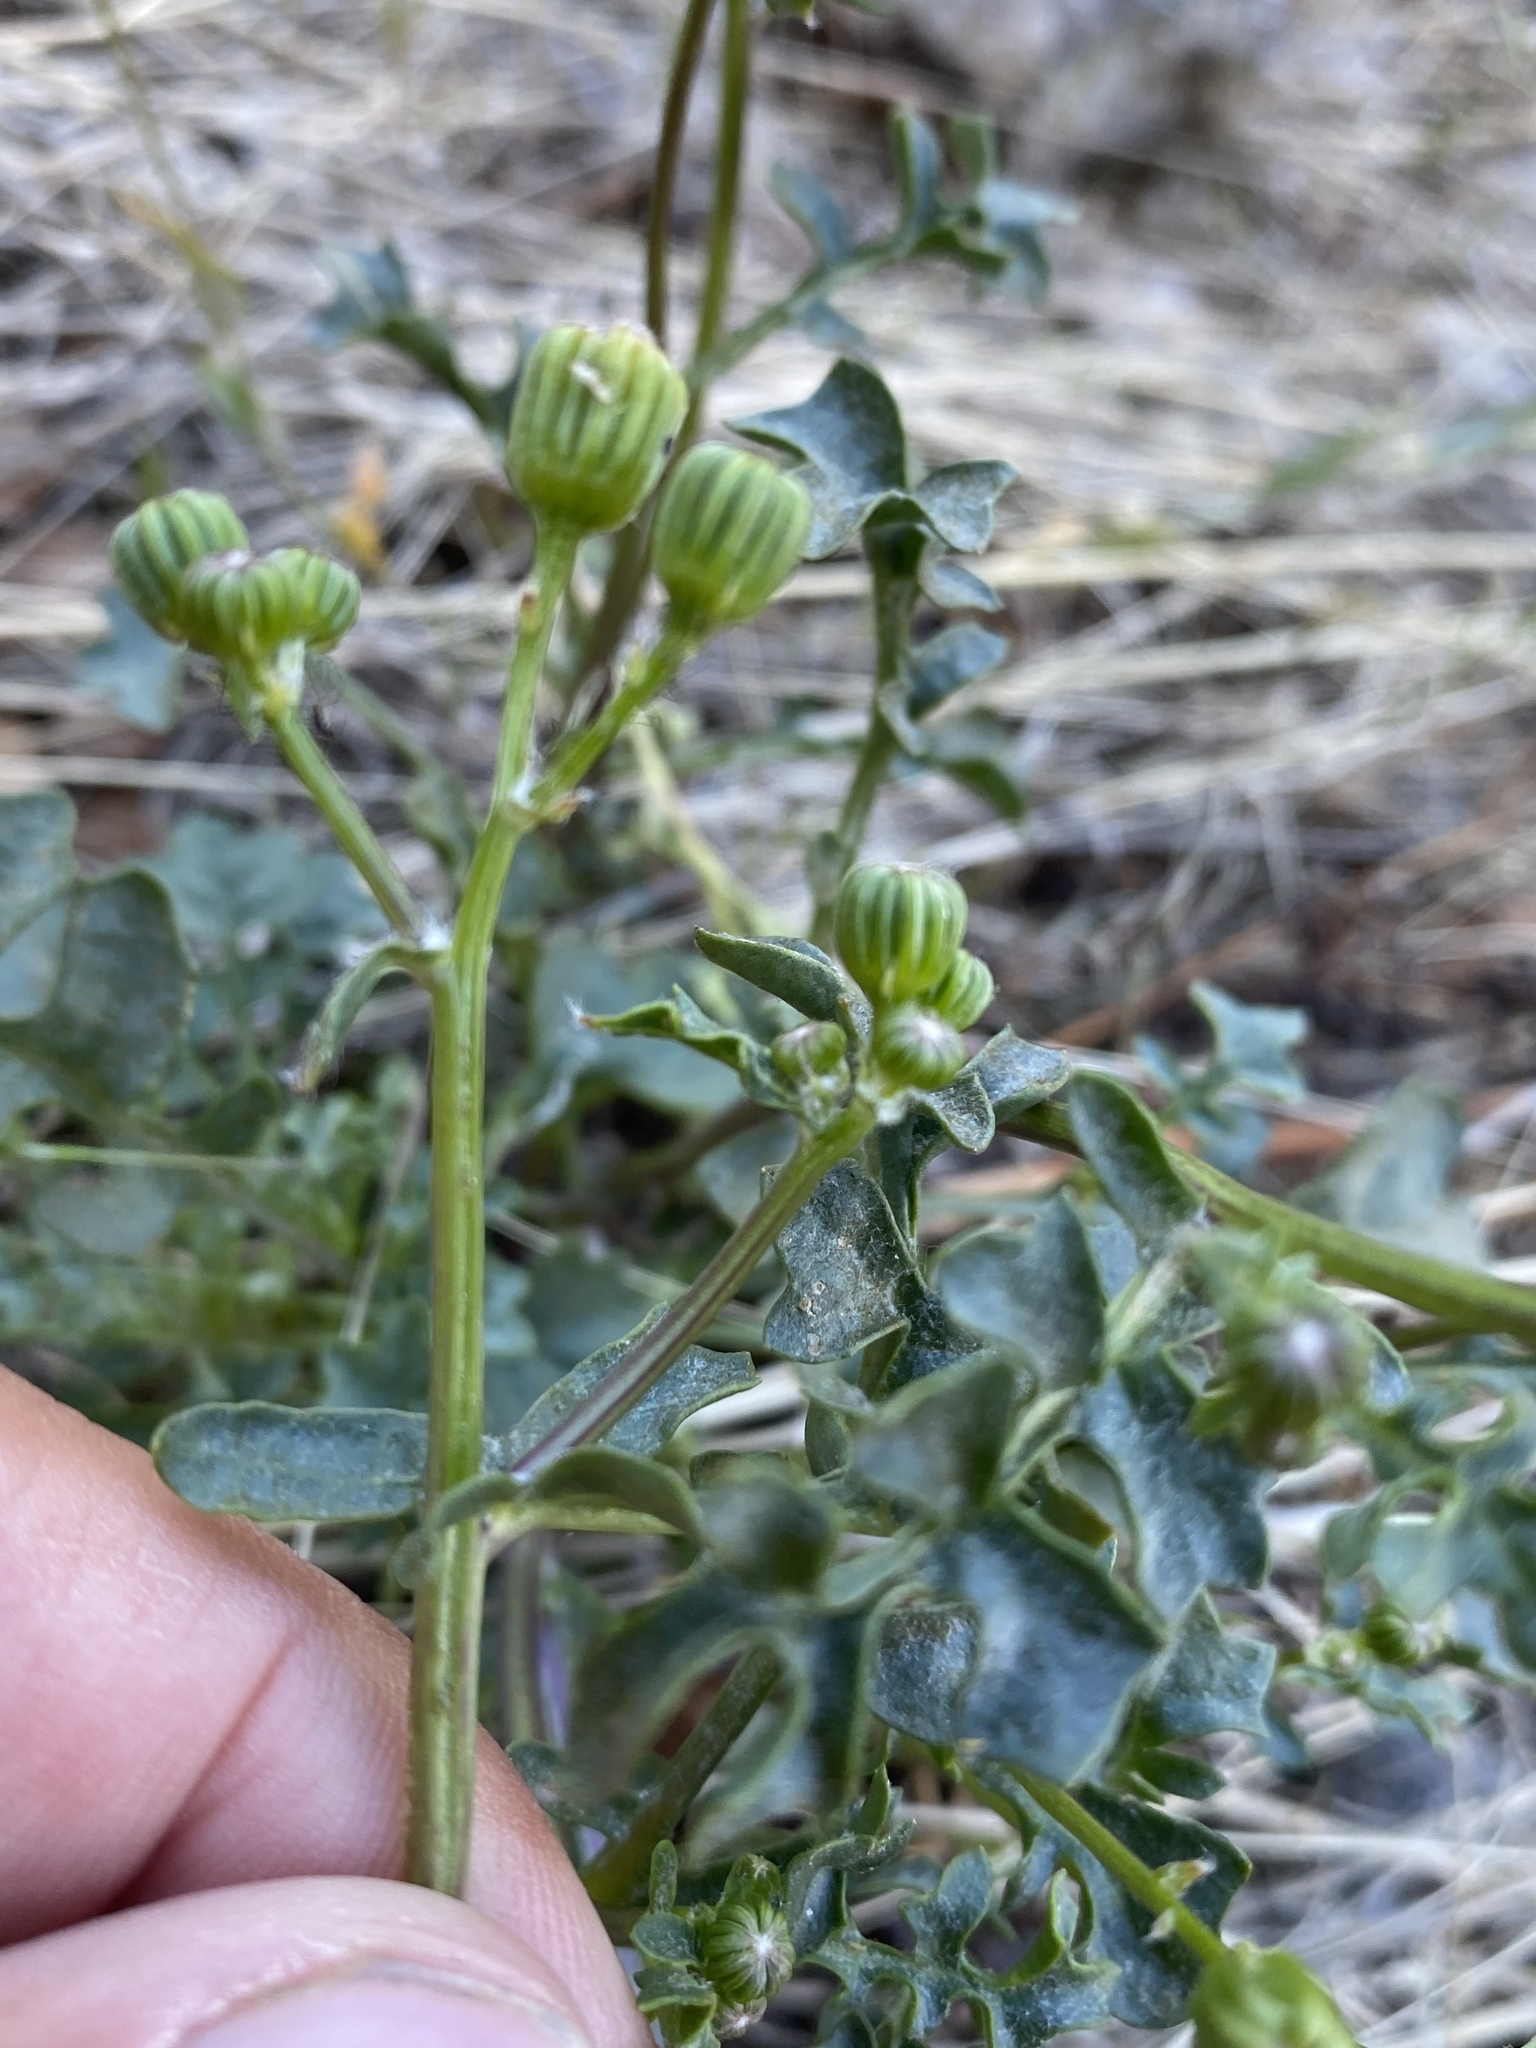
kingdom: Plantae
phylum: Tracheophyta
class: Magnoliopsida
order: Asterales
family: Asteraceae
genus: Packera
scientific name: Packera multilobata
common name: Lobe-leaf groundsel
